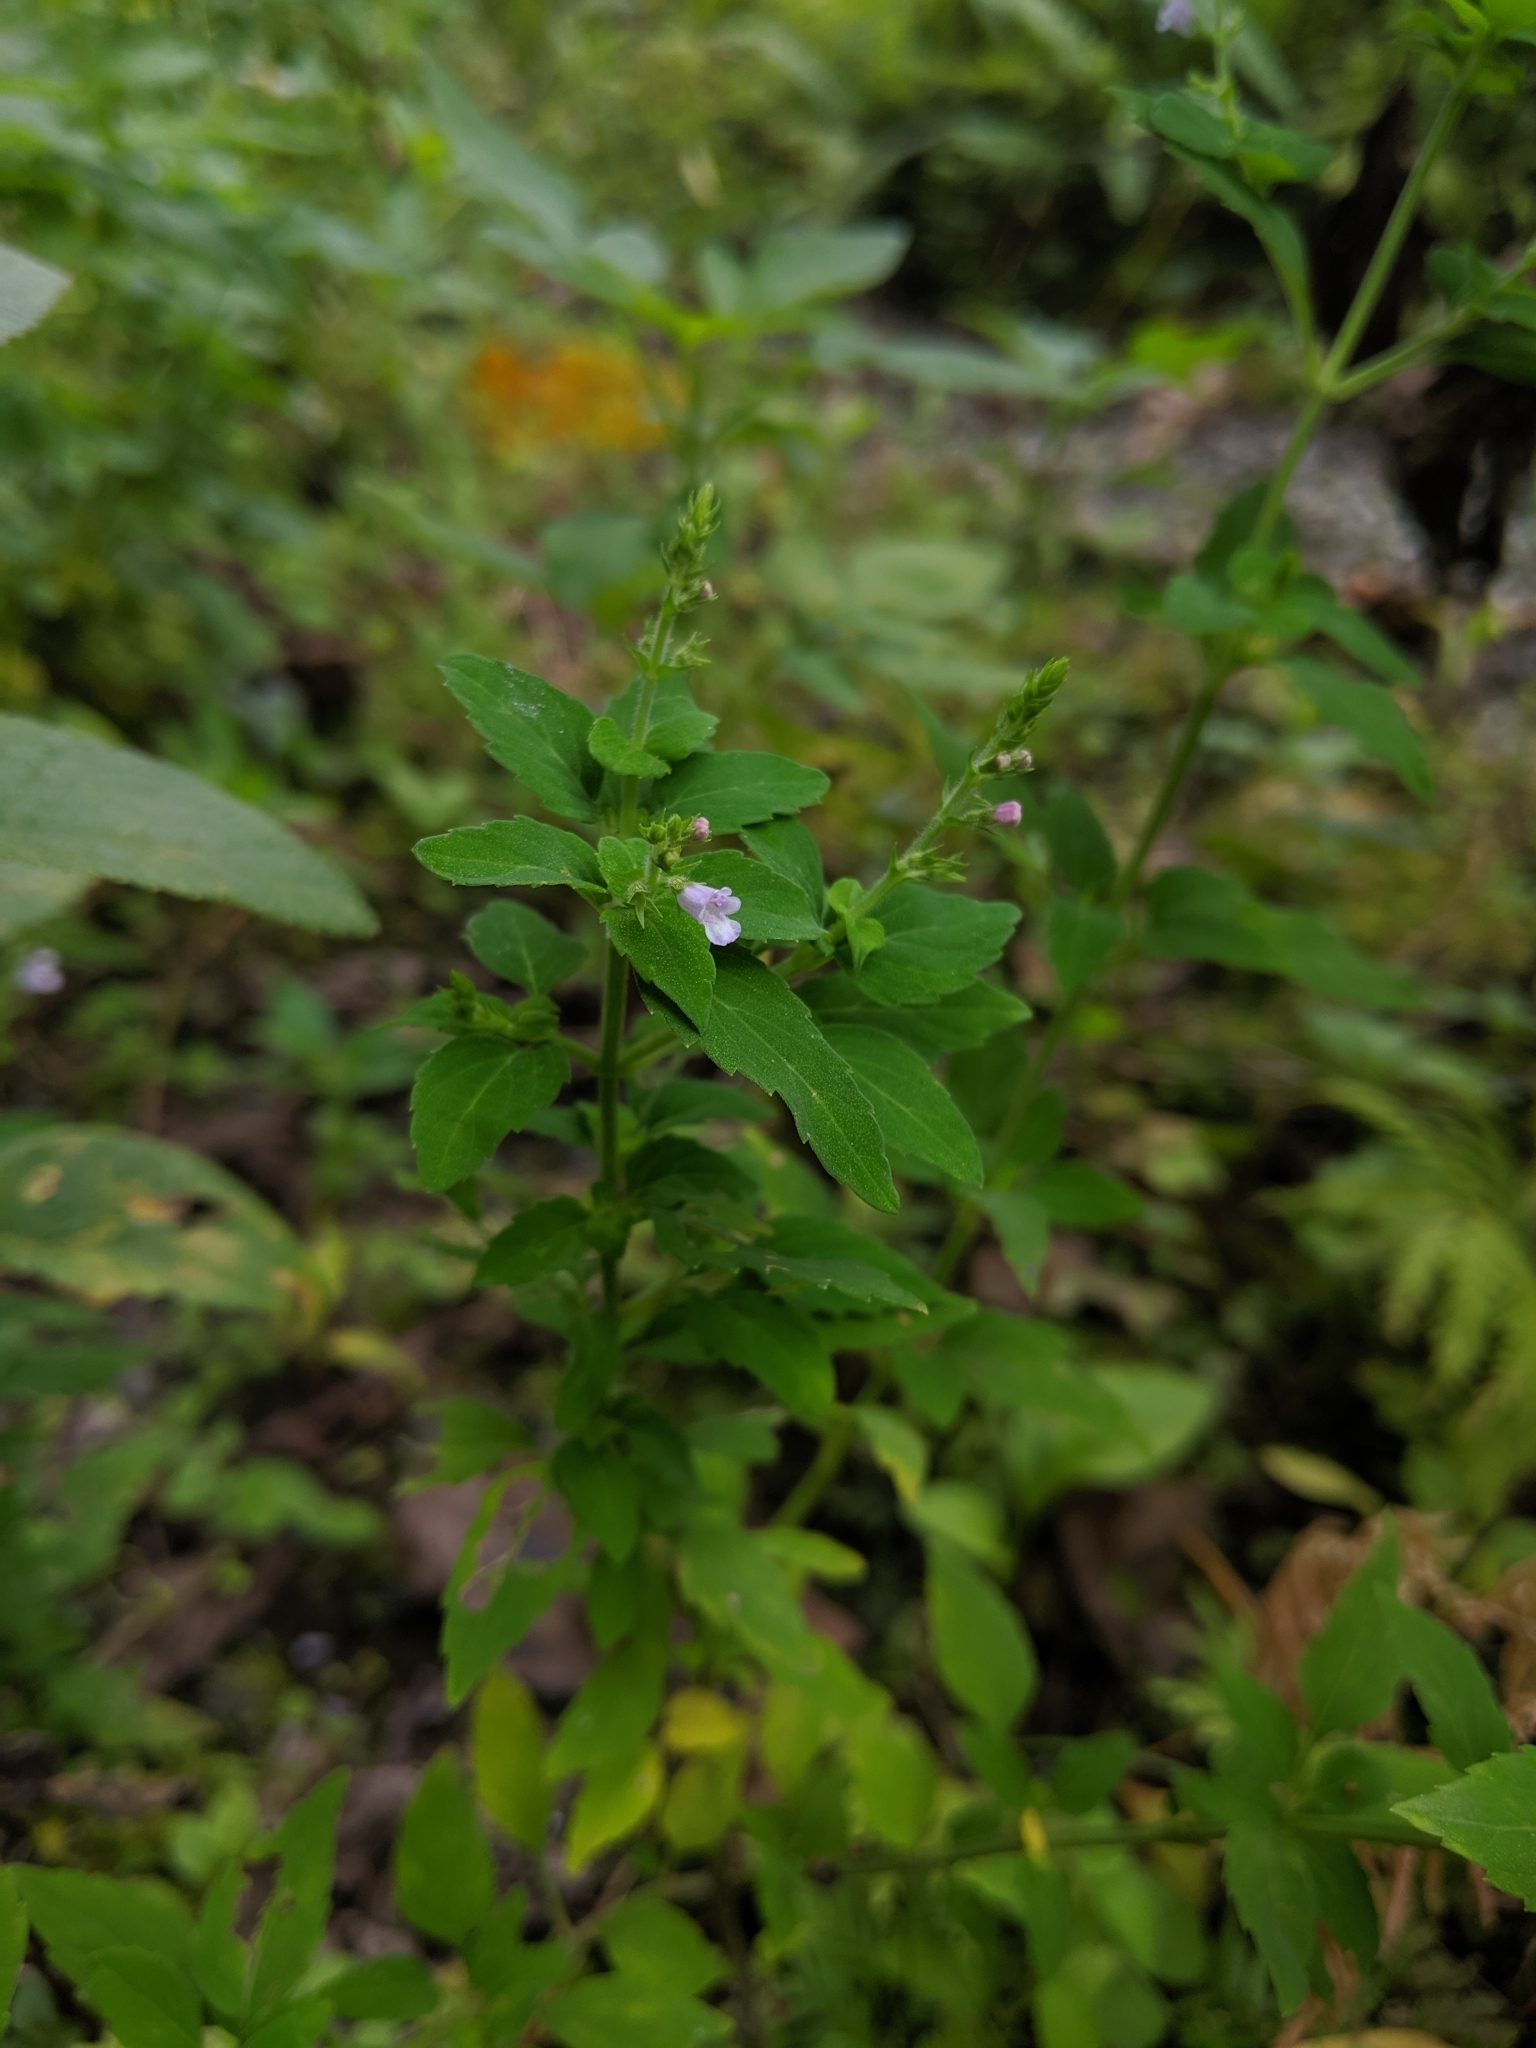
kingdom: Plantae
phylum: Tracheophyta
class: Magnoliopsida
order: Lamiales
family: Lamiaceae
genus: Mosla
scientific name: Mosla scabra
